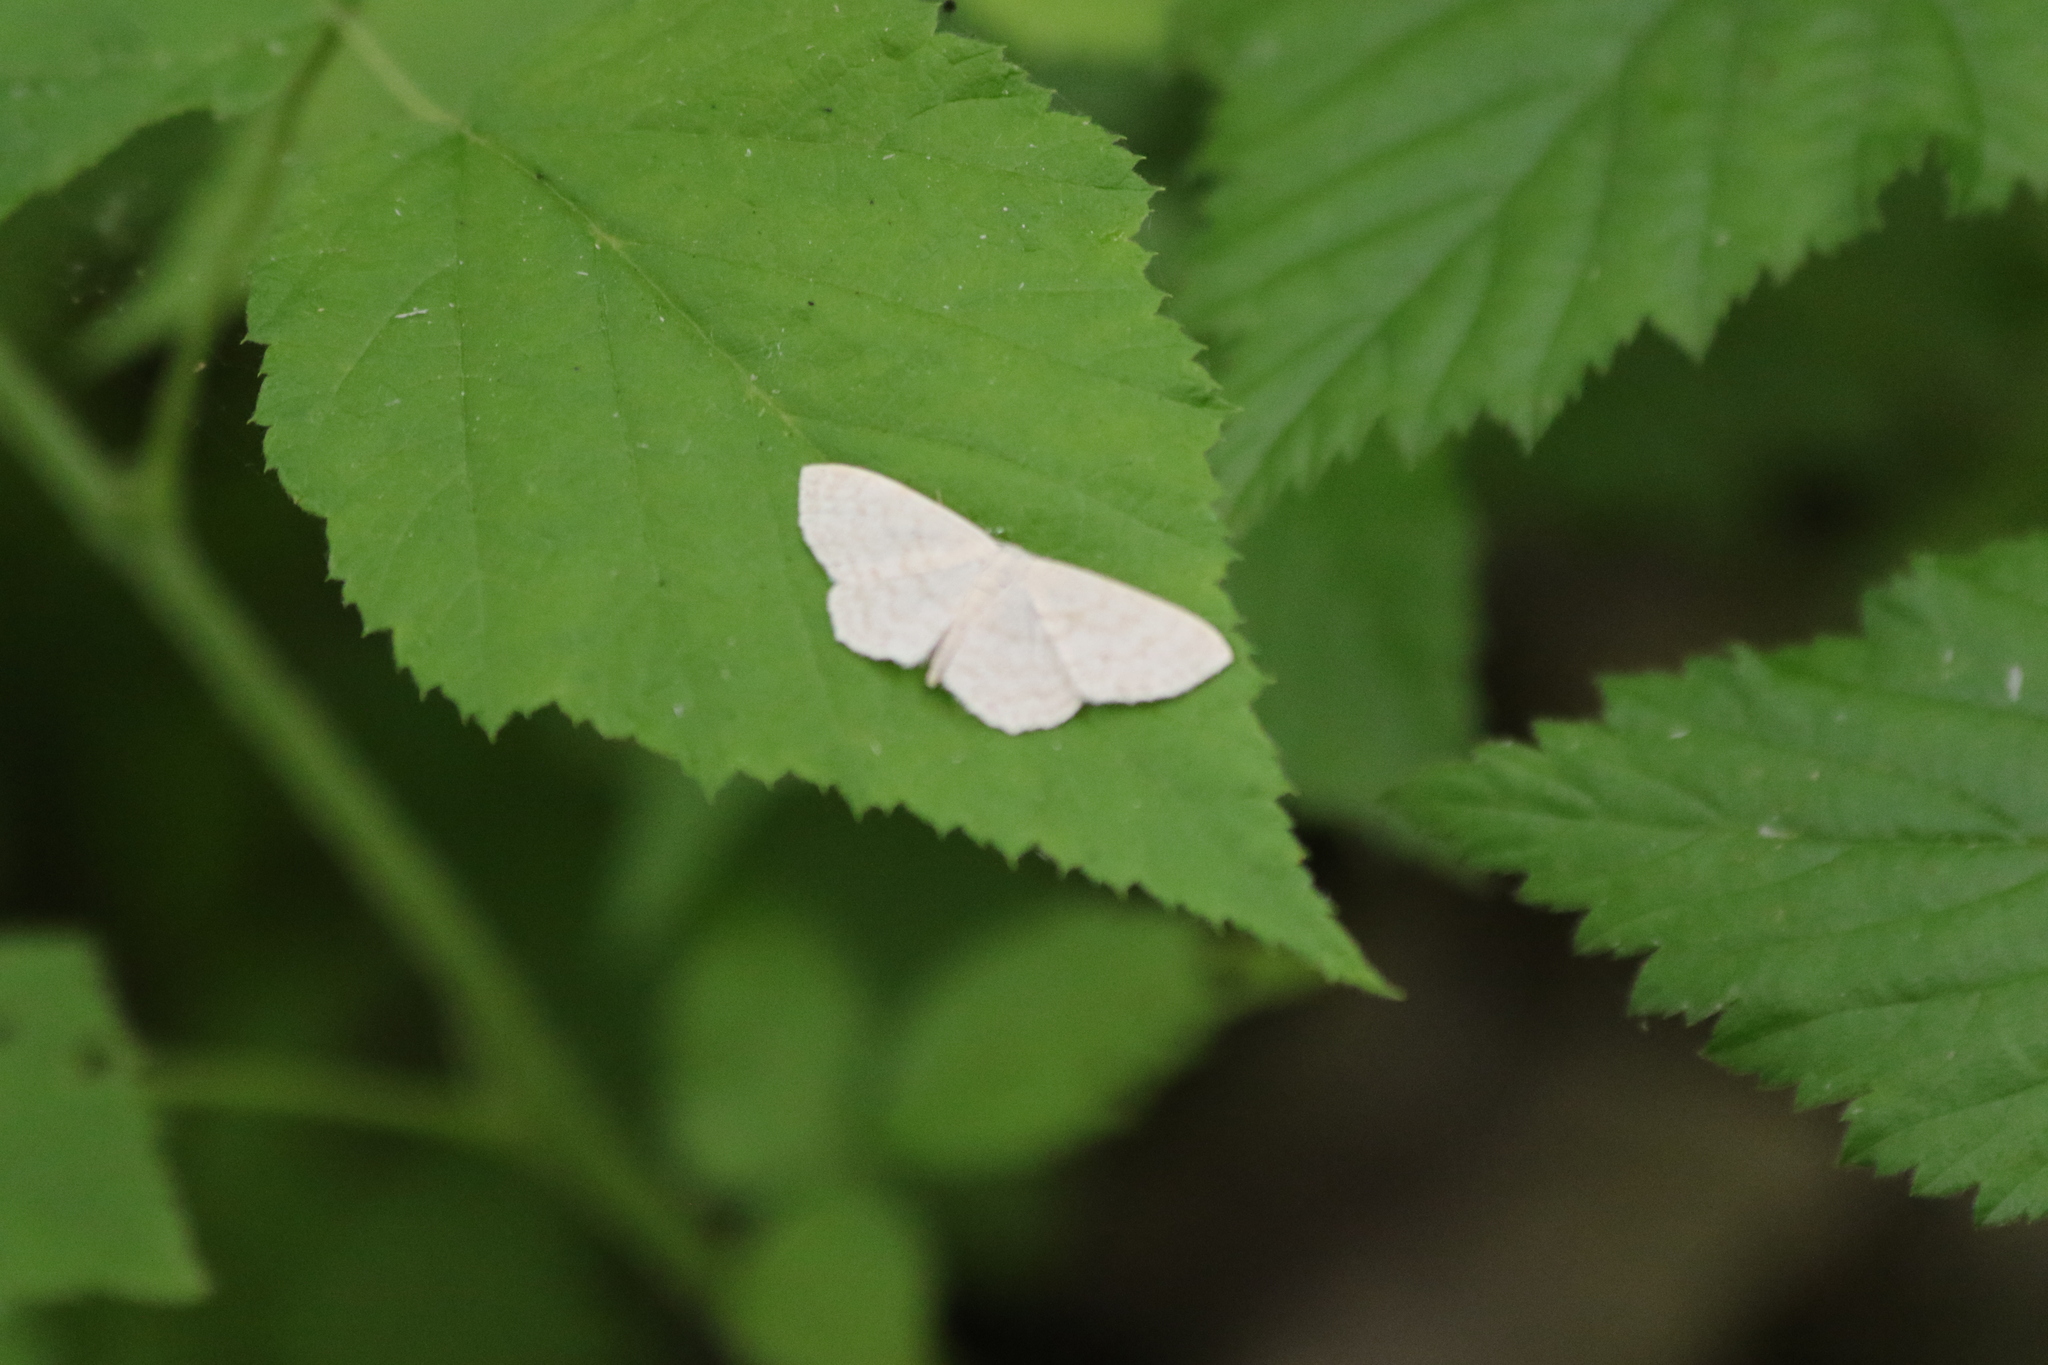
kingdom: Animalia
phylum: Arthropoda
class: Insecta
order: Lepidoptera
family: Geometridae
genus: Scopula
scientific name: Scopula floslactata
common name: Cream wave
